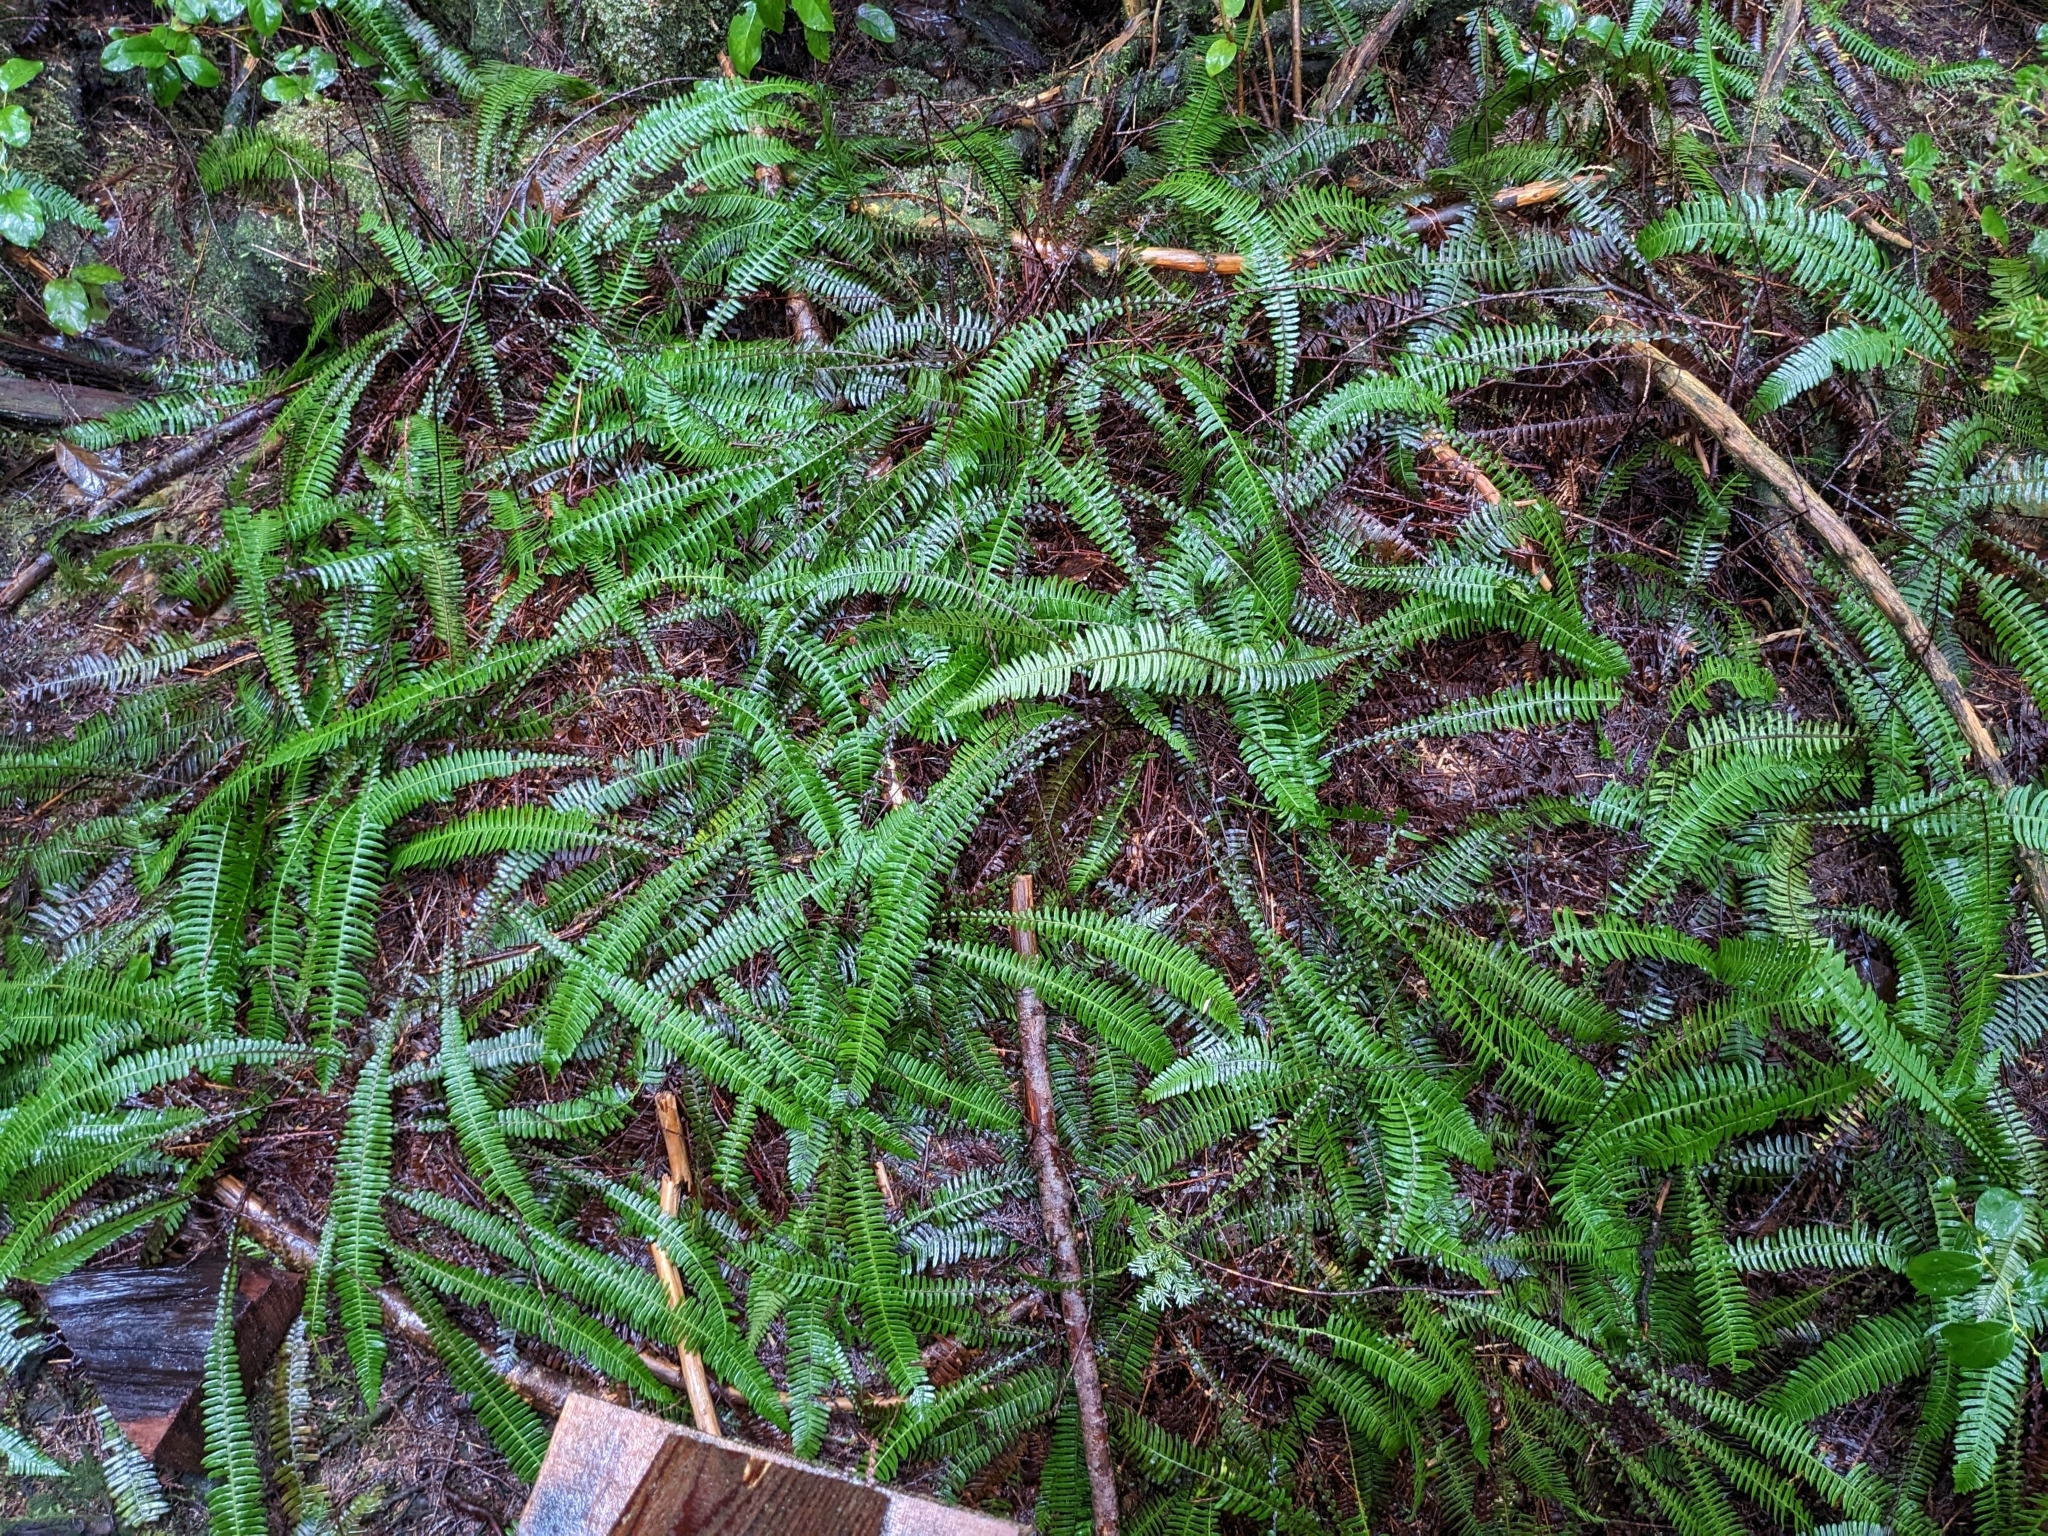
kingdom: Plantae
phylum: Tracheophyta
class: Polypodiopsida
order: Polypodiales
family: Blechnaceae
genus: Struthiopteris
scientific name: Struthiopteris spicant
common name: Deer fern
